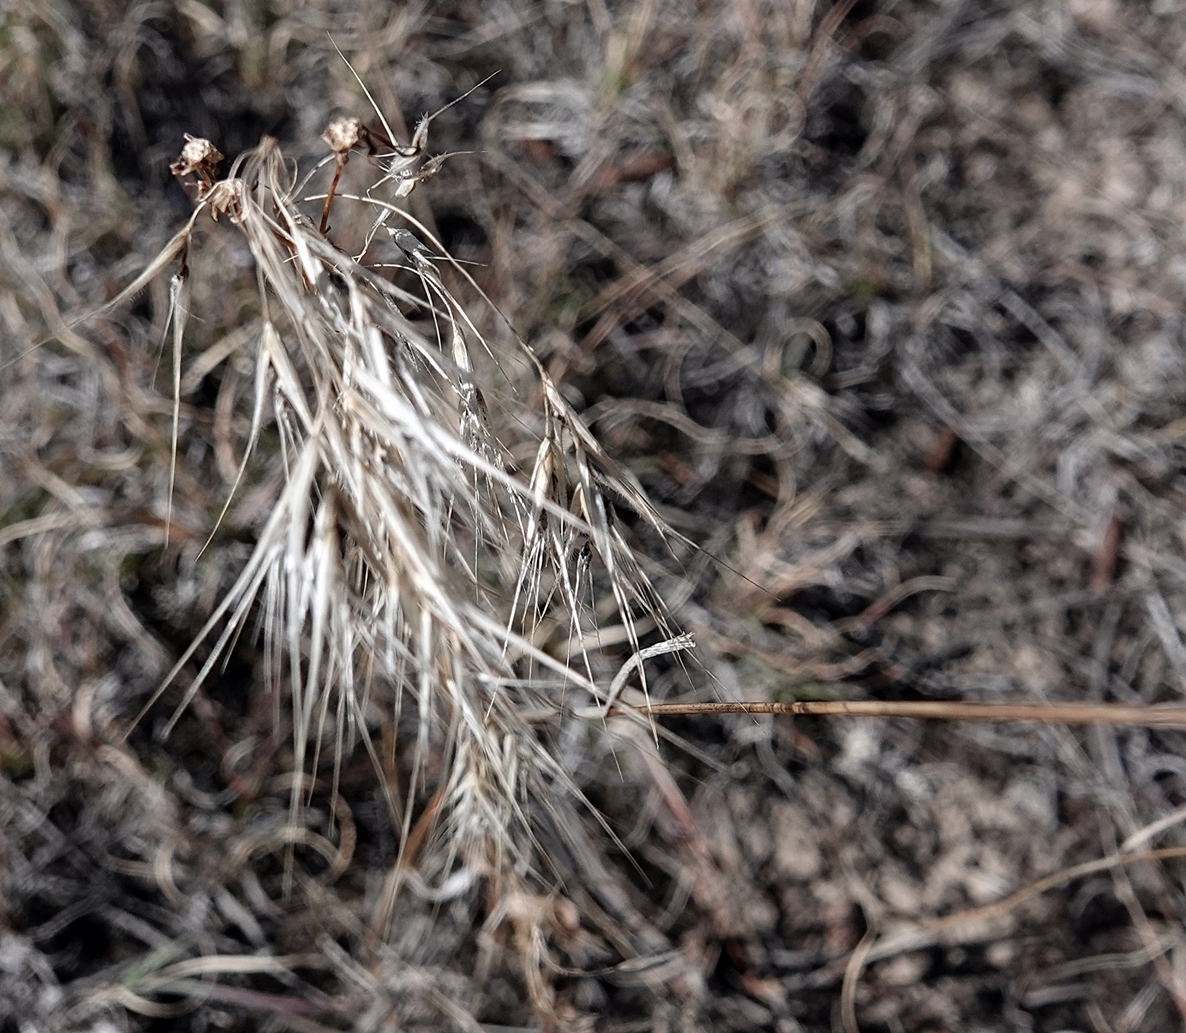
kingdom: Plantae
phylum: Tracheophyta
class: Liliopsida
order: Poales
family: Poaceae
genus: Bromus
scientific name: Bromus tectorum
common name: Cheatgrass
